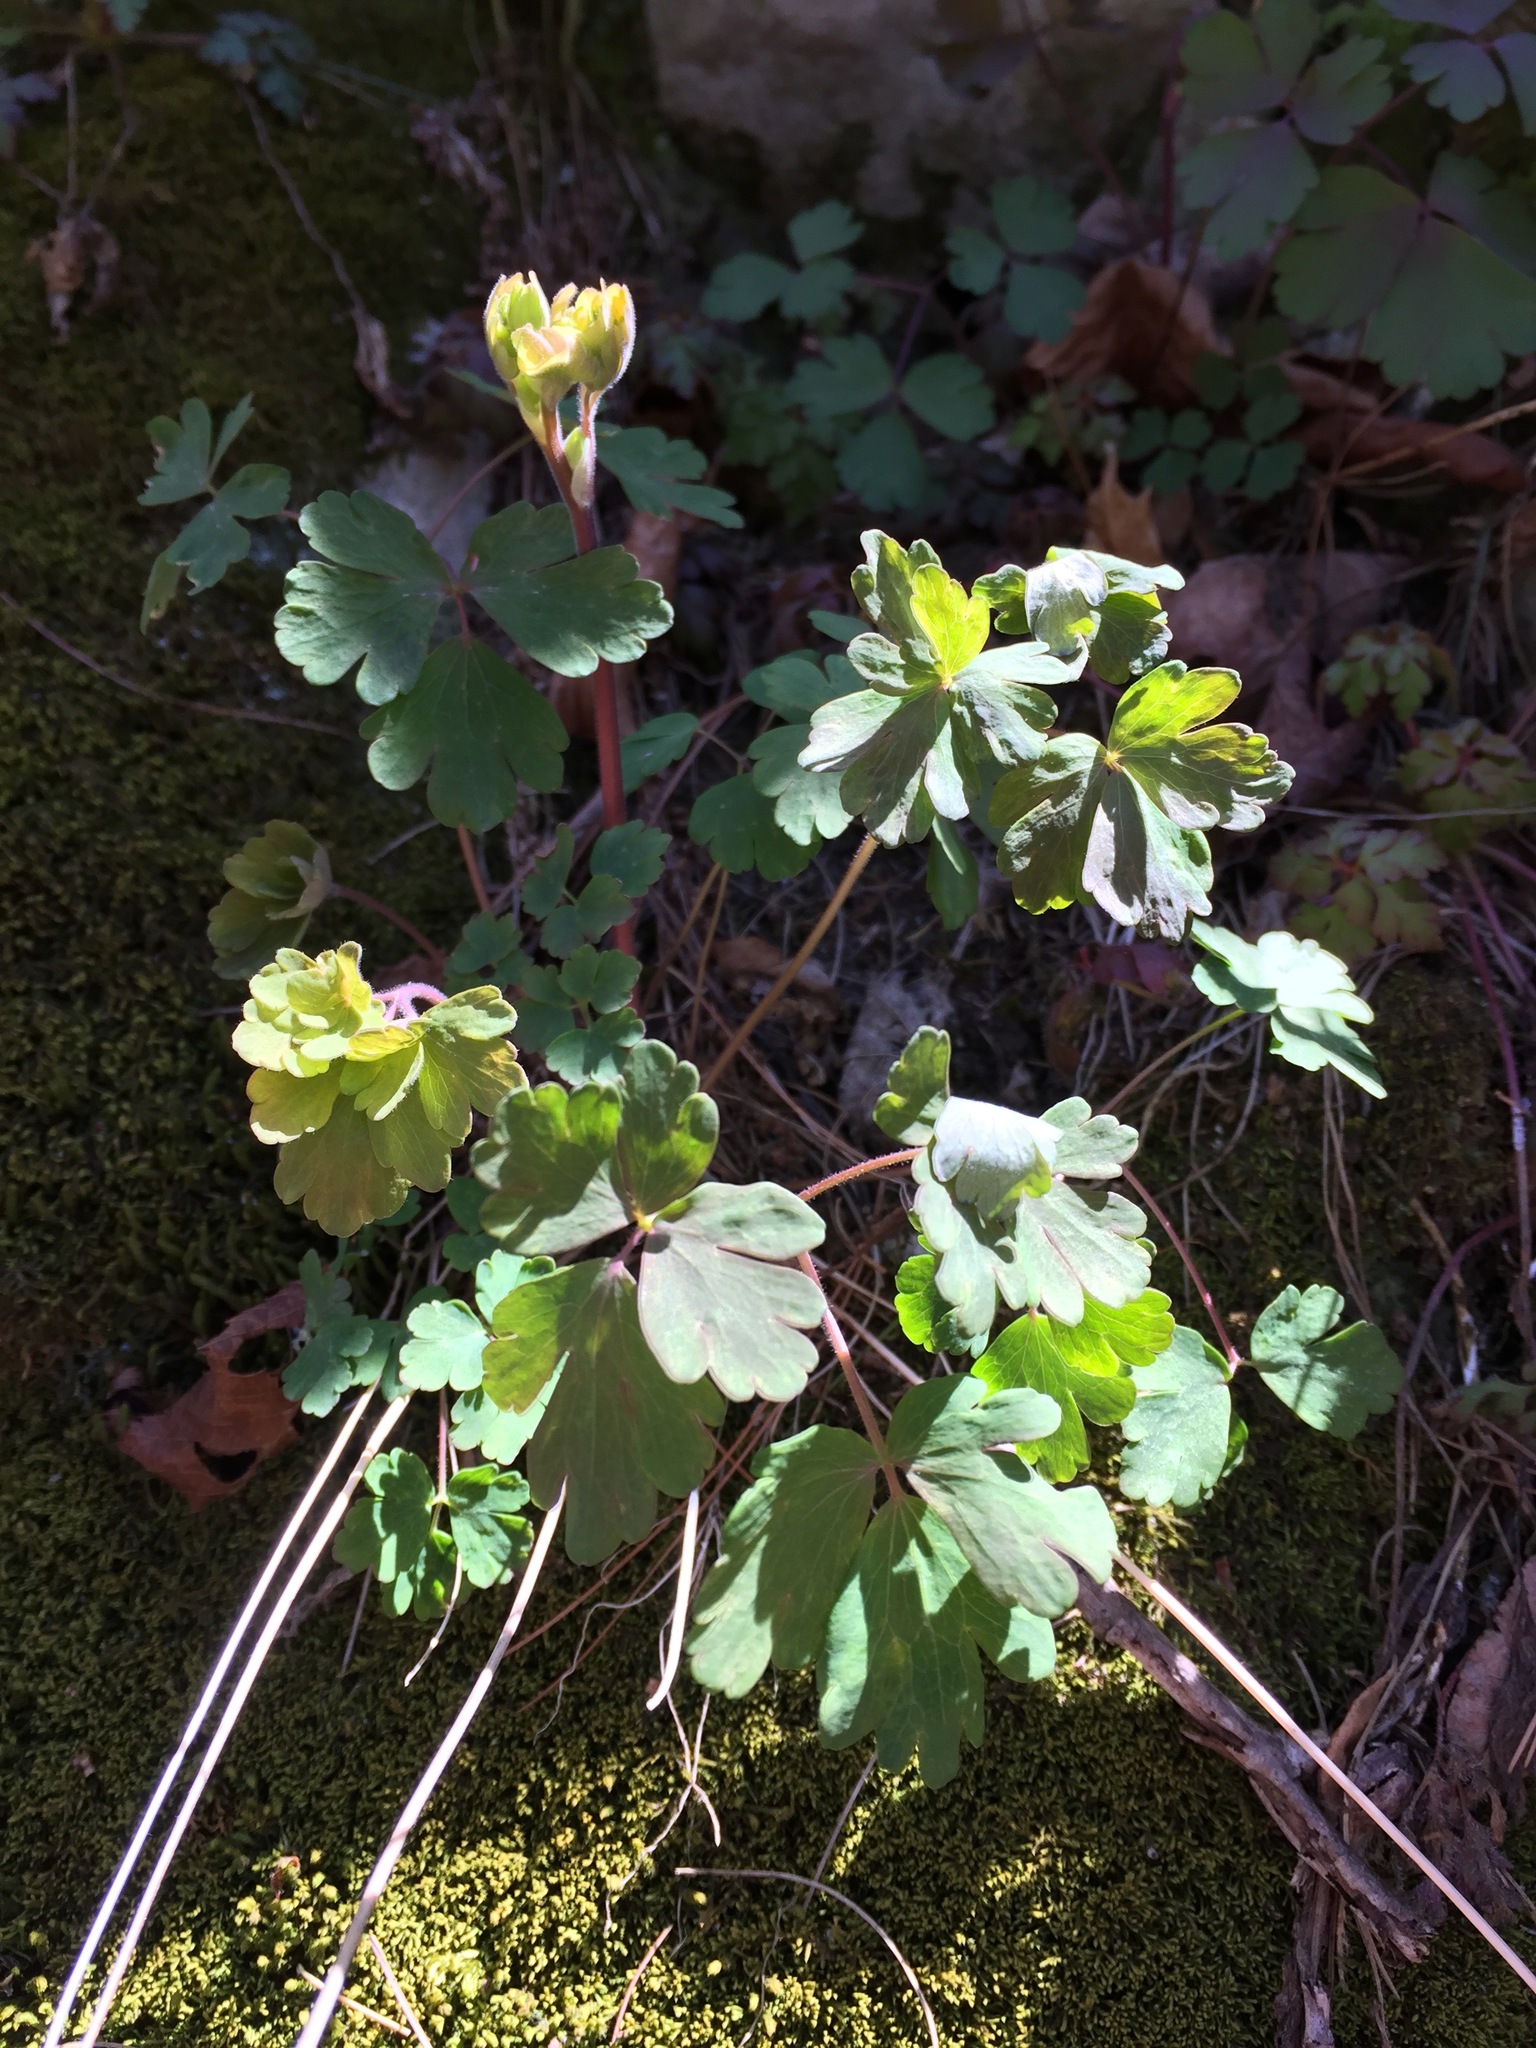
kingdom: Plantae
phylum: Tracheophyta
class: Magnoliopsida
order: Ranunculales
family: Ranunculaceae
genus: Aquilegia
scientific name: Aquilegia canadensis
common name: American columbine
